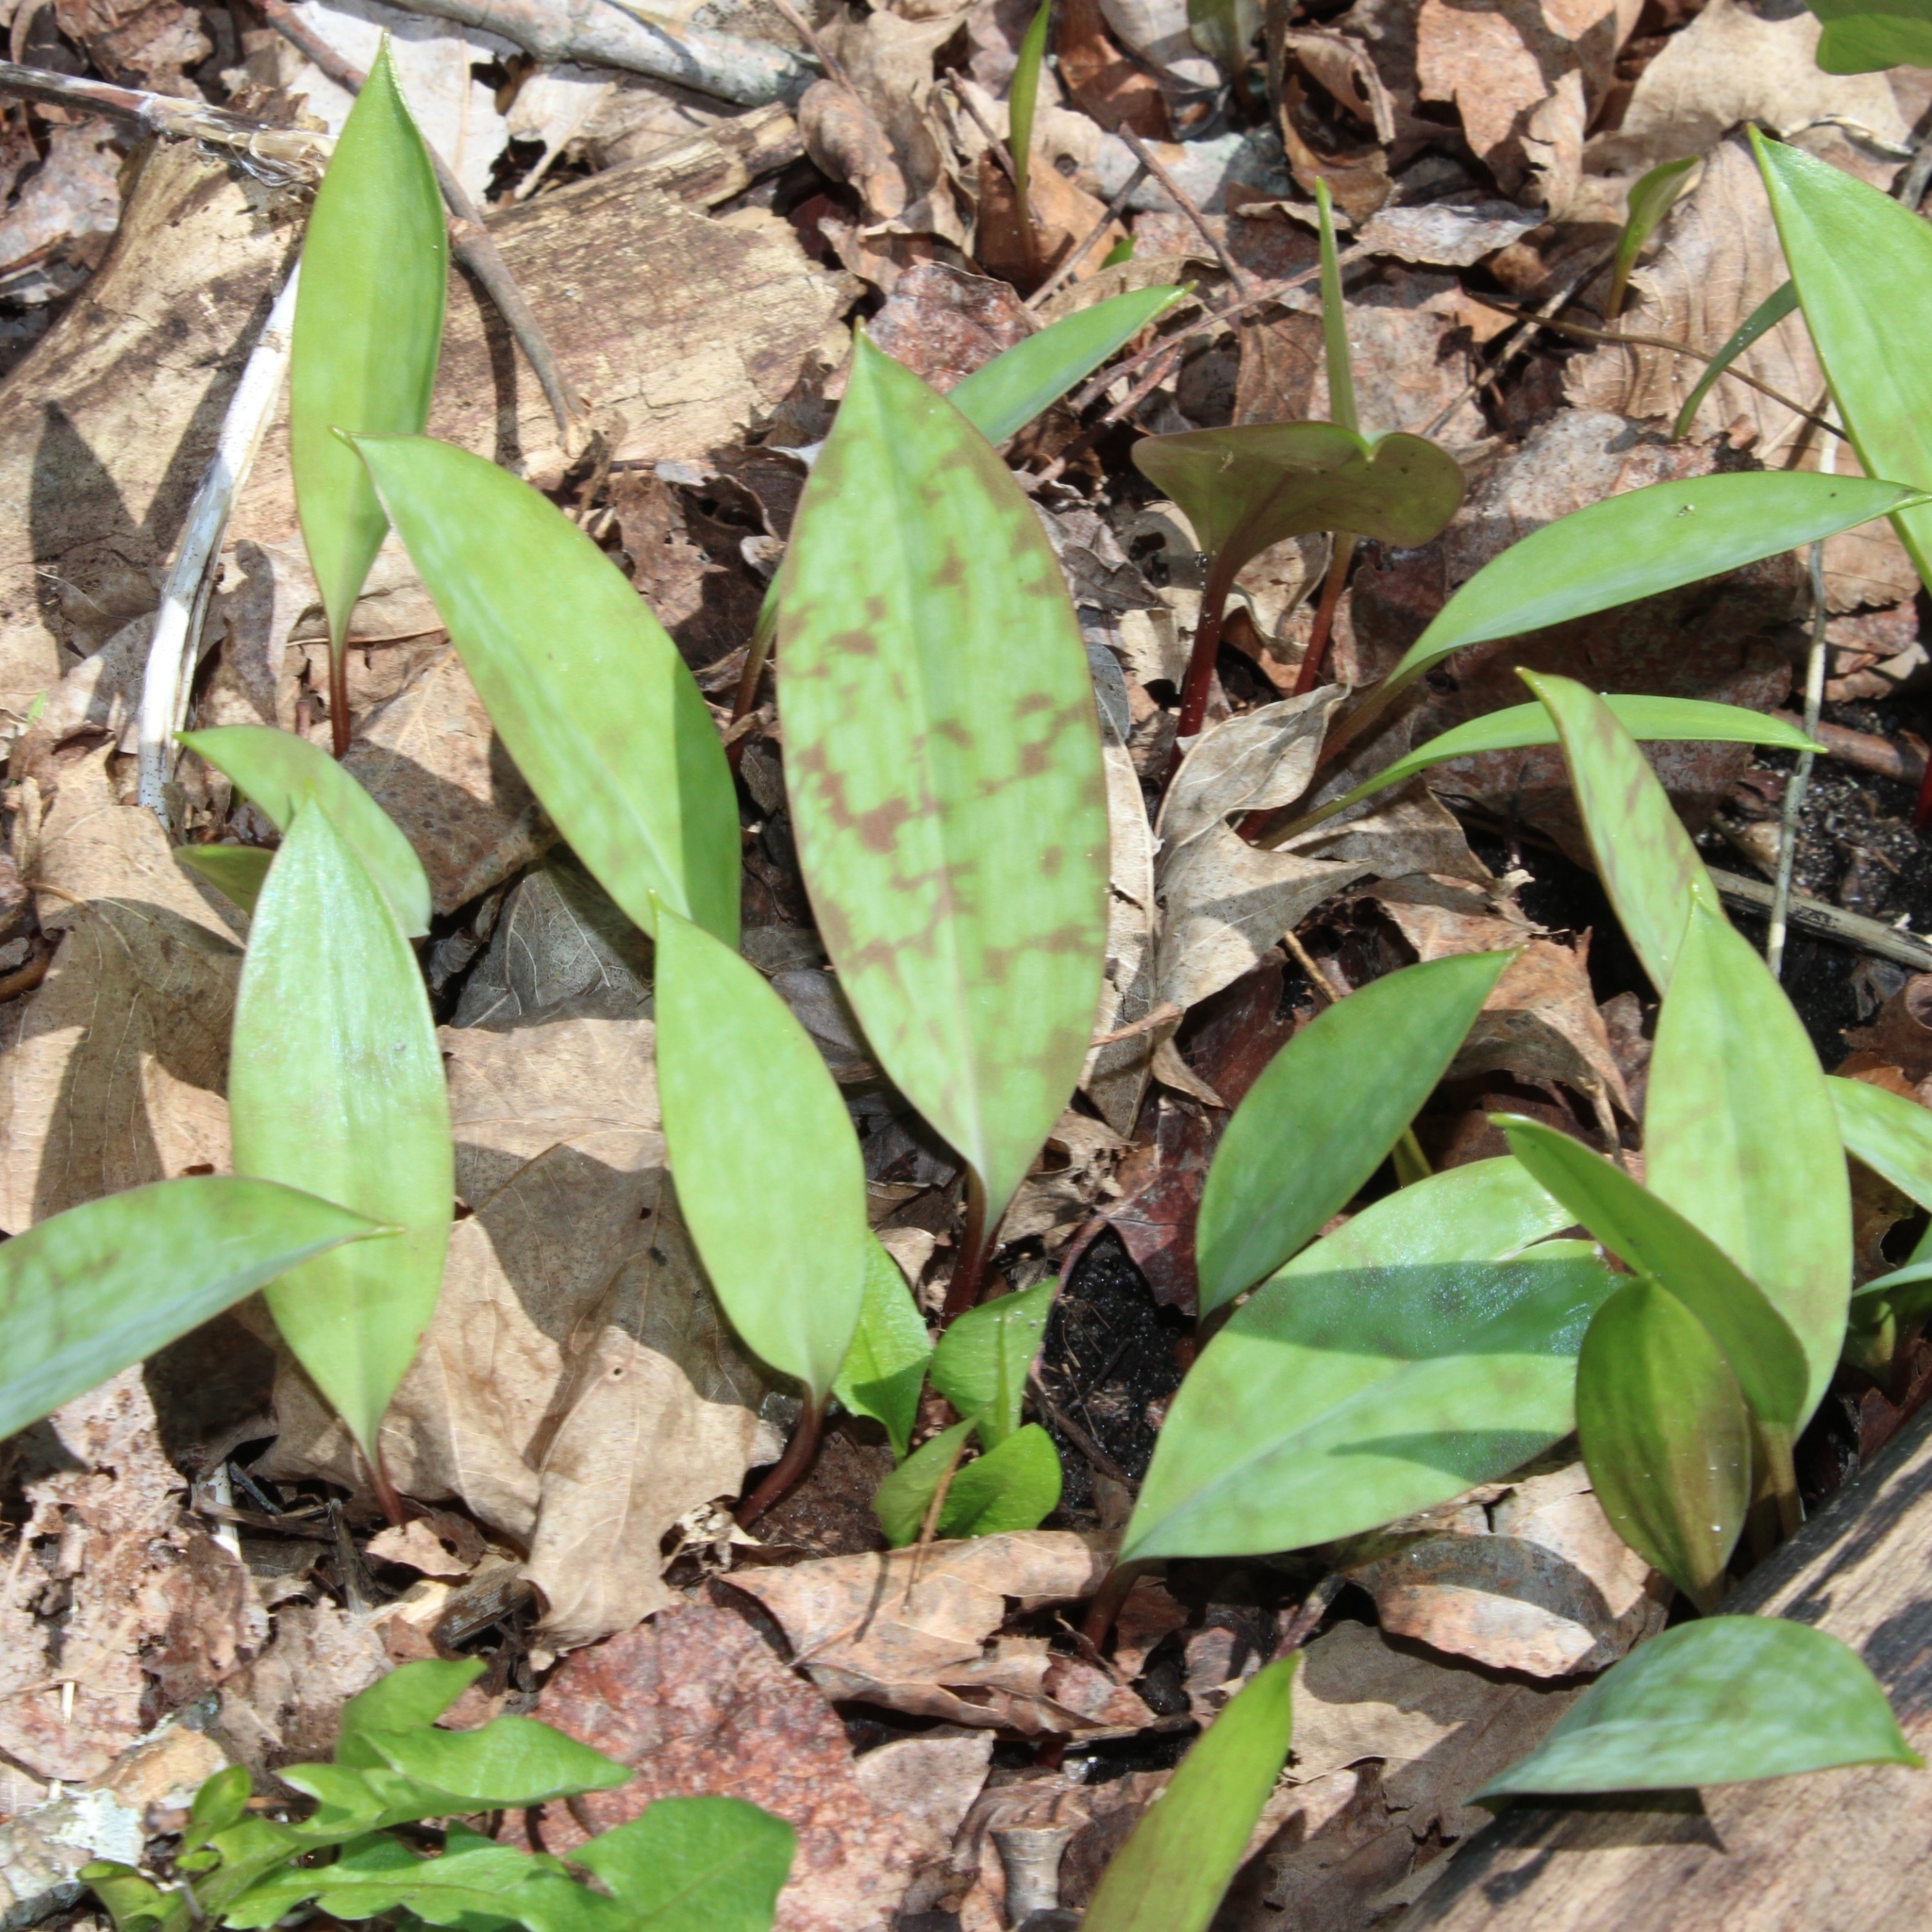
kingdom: Plantae
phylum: Tracheophyta
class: Liliopsida
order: Liliales
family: Liliaceae
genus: Erythronium
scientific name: Erythronium americanum
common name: Yellow adder's-tongue
